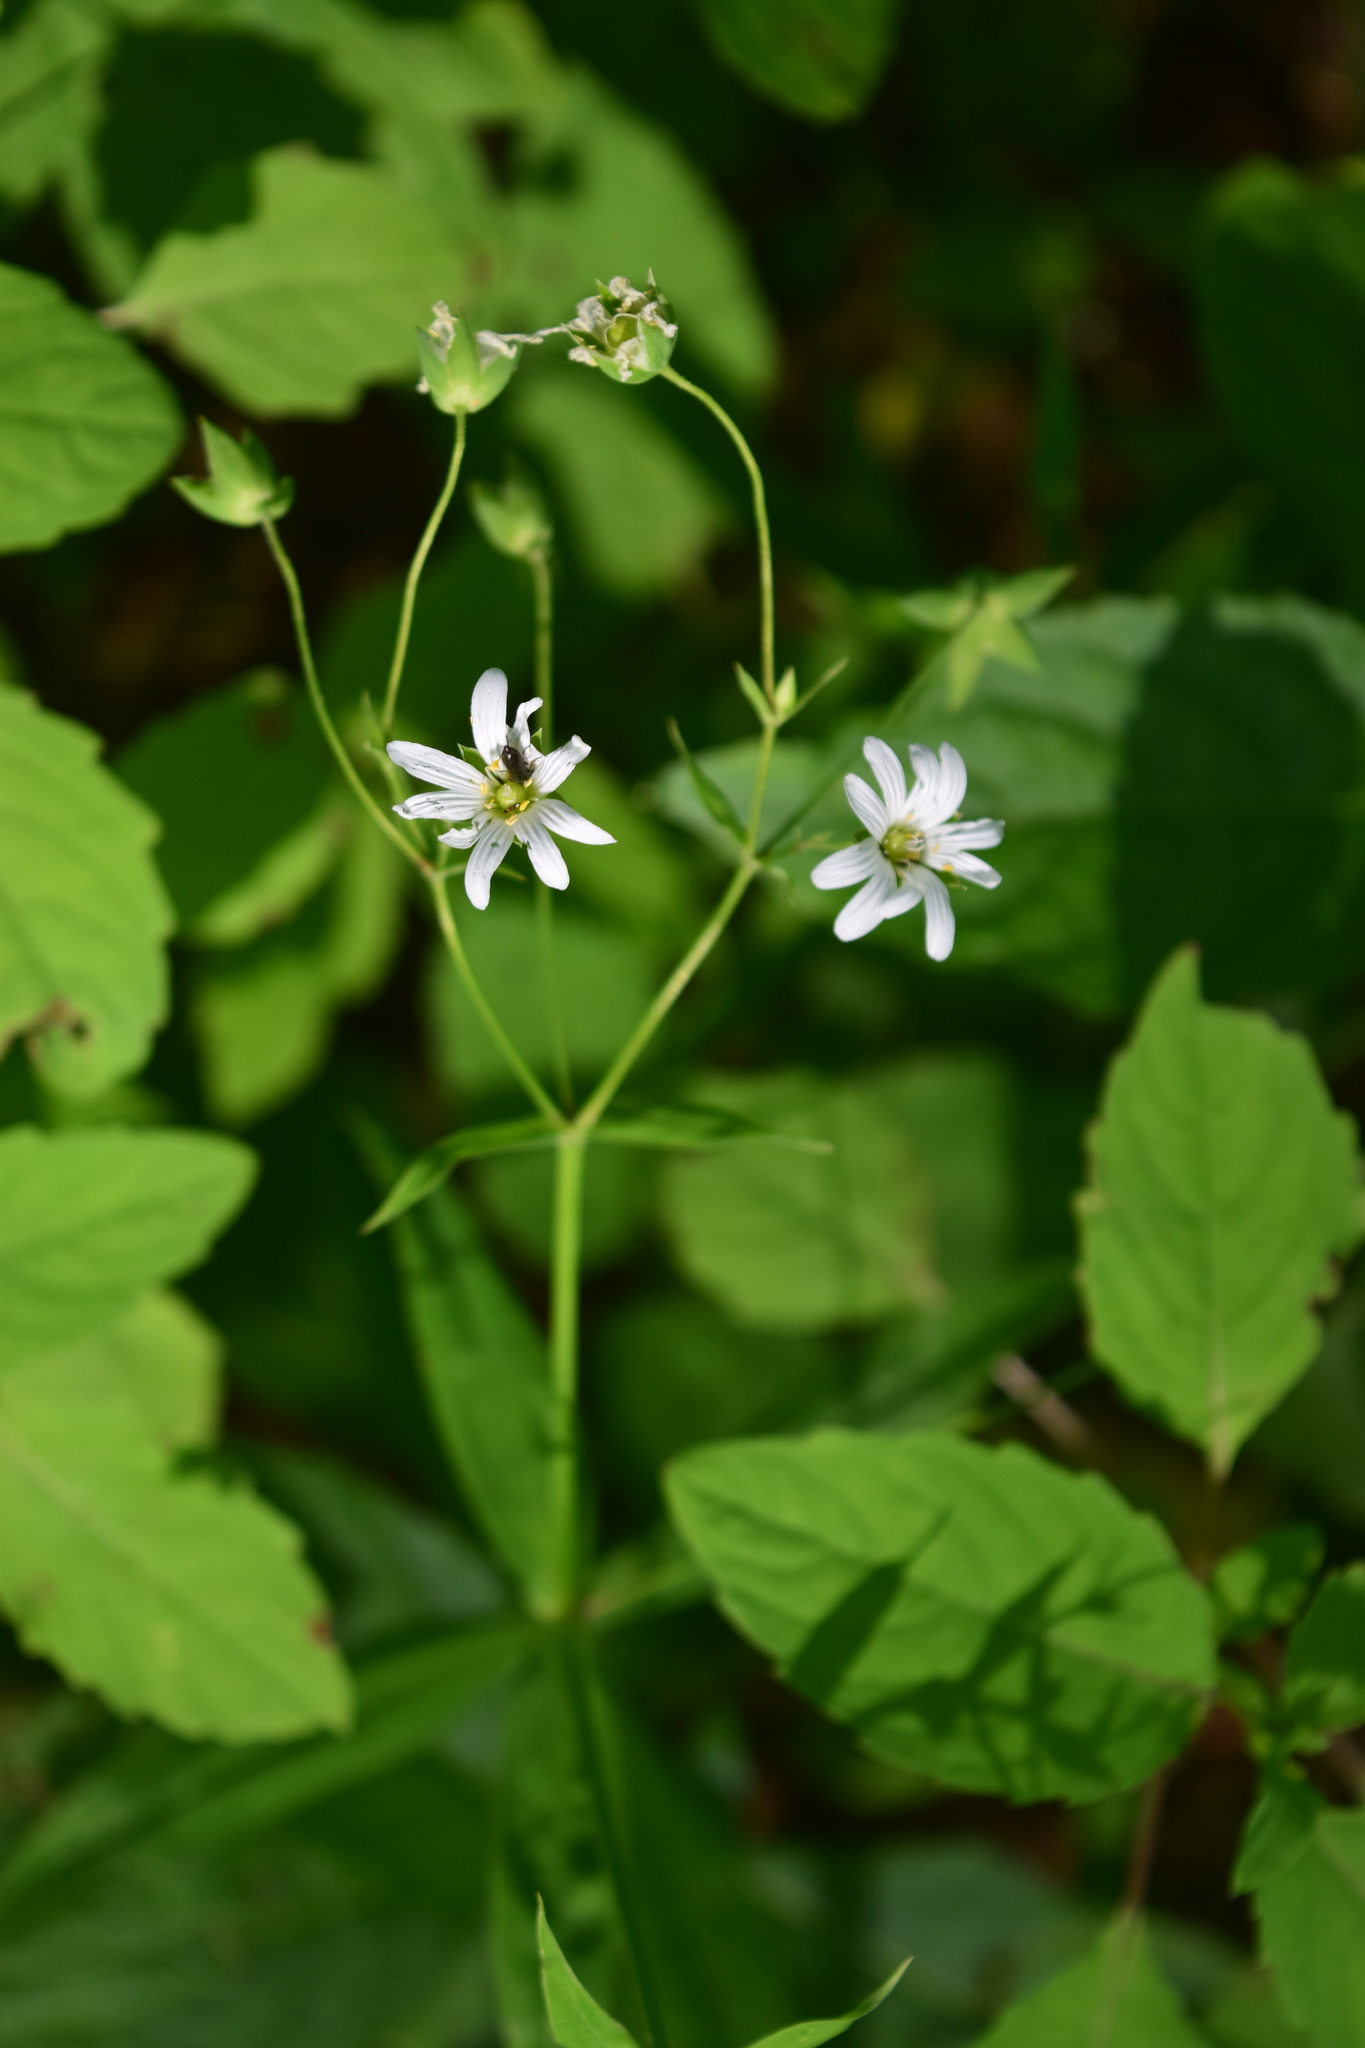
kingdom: Plantae
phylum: Tracheophyta
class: Magnoliopsida
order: Caryophyllales
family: Caryophyllaceae
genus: Rabelera
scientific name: Rabelera holostea
